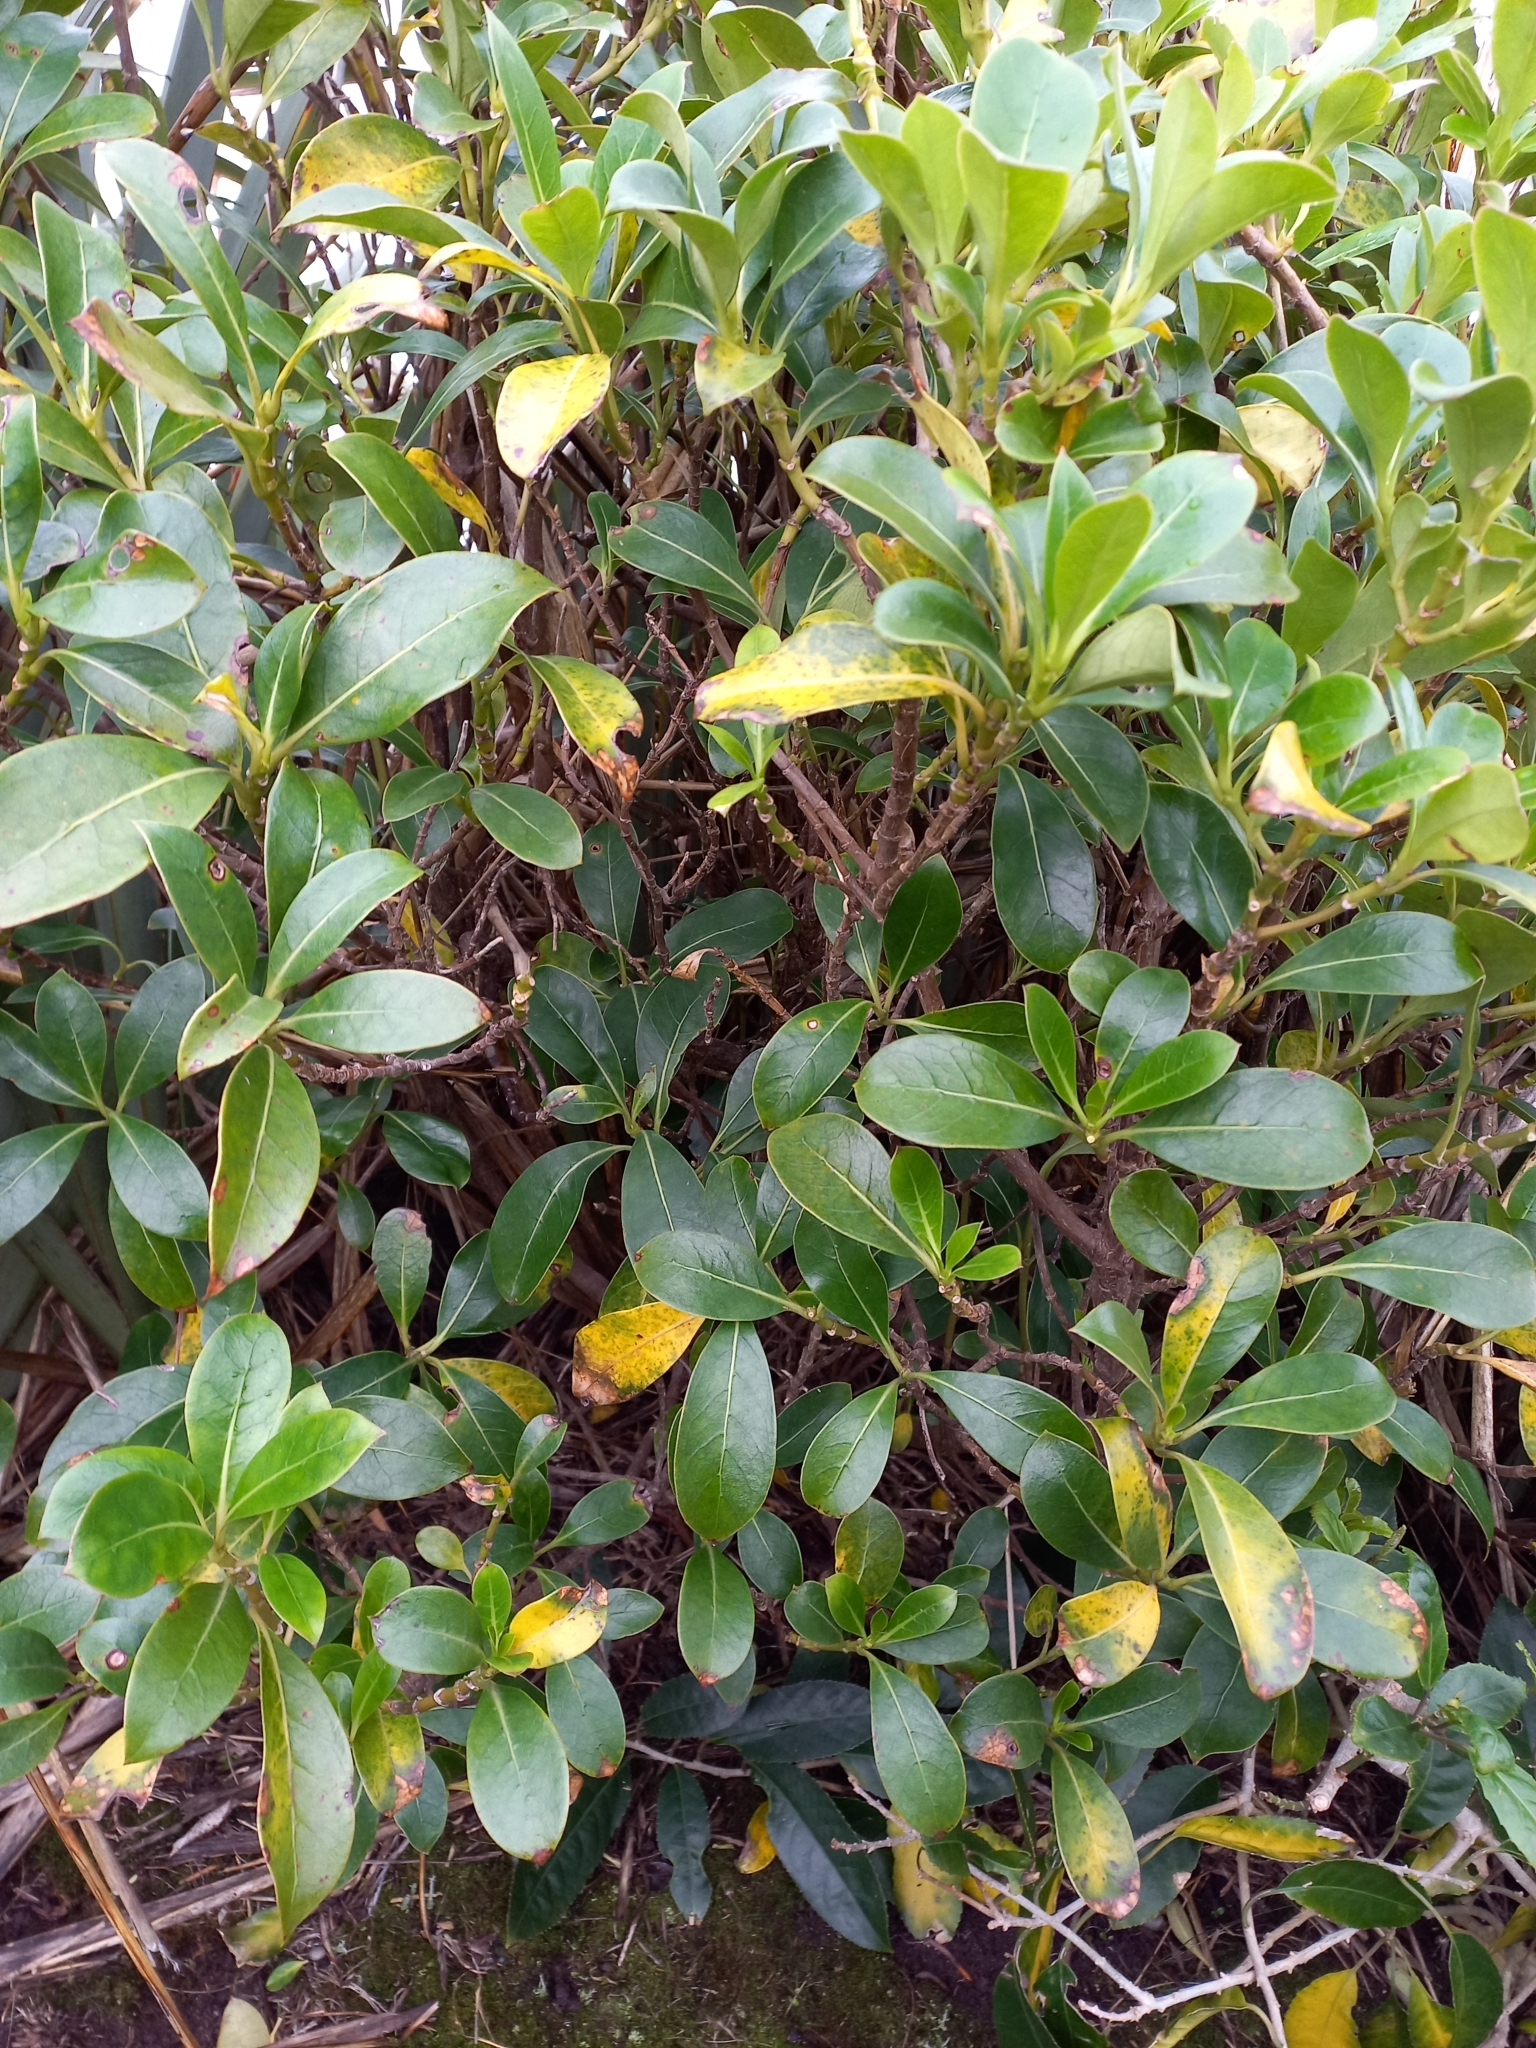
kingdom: Plantae
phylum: Tracheophyta
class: Magnoliopsida
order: Gentianales
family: Rubiaceae
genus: Coprosma
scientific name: Coprosma lucida
